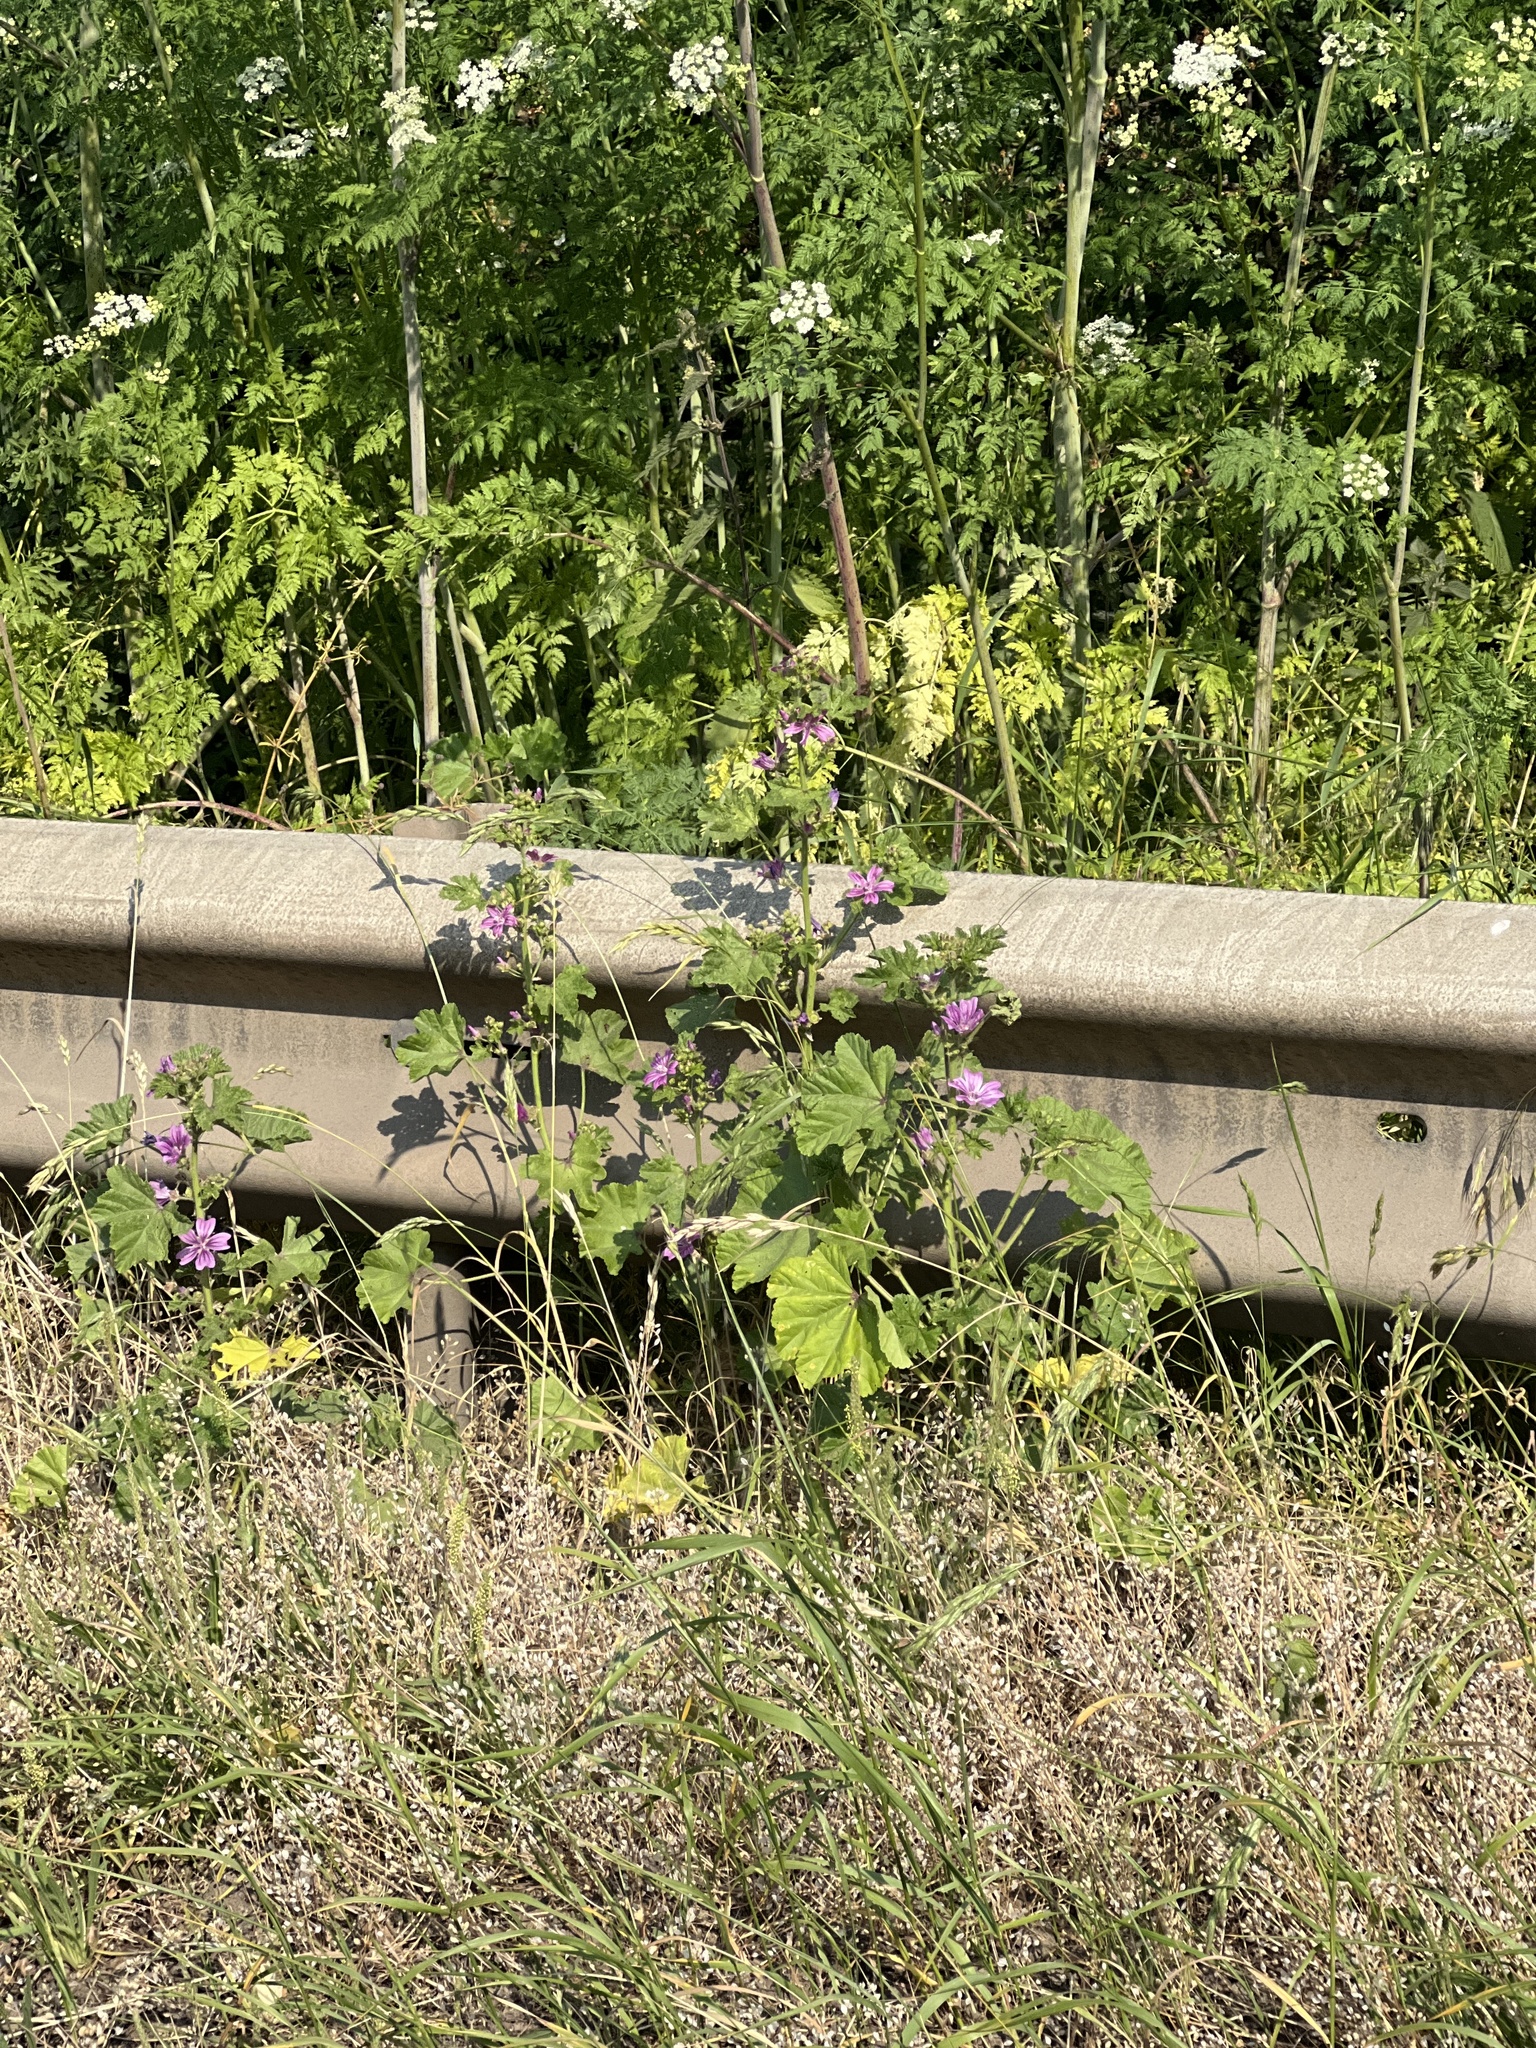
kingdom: Plantae
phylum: Tracheophyta
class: Magnoliopsida
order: Malvales
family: Malvaceae
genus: Malva
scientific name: Malva sylvestris
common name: Common mallow
